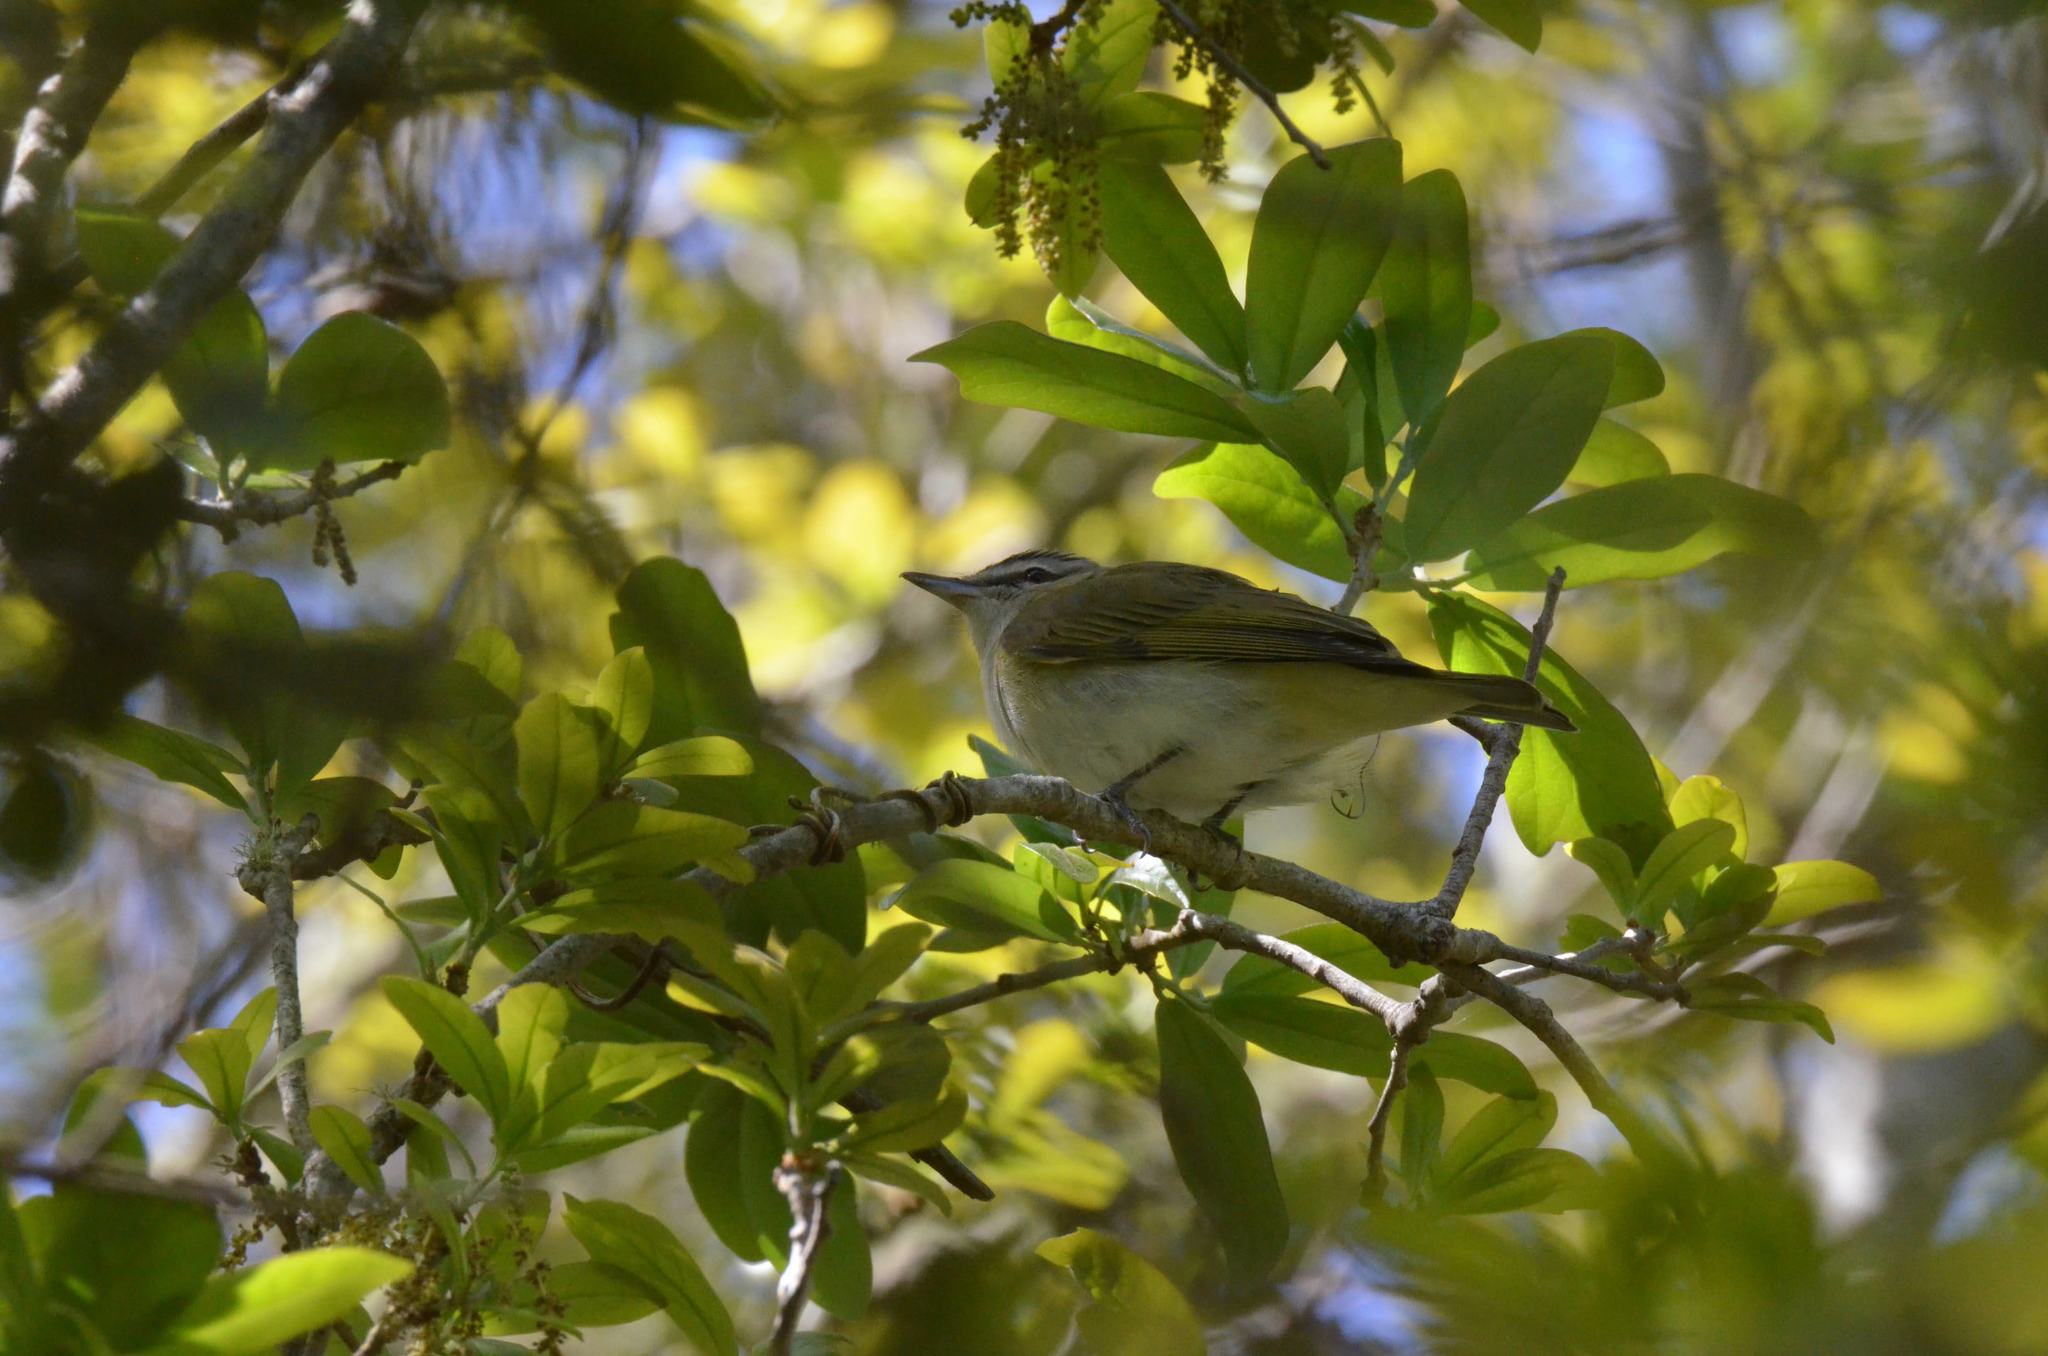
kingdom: Animalia
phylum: Chordata
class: Aves
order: Passeriformes
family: Vireonidae
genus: Vireo
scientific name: Vireo olivaceus
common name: Red-eyed vireo
